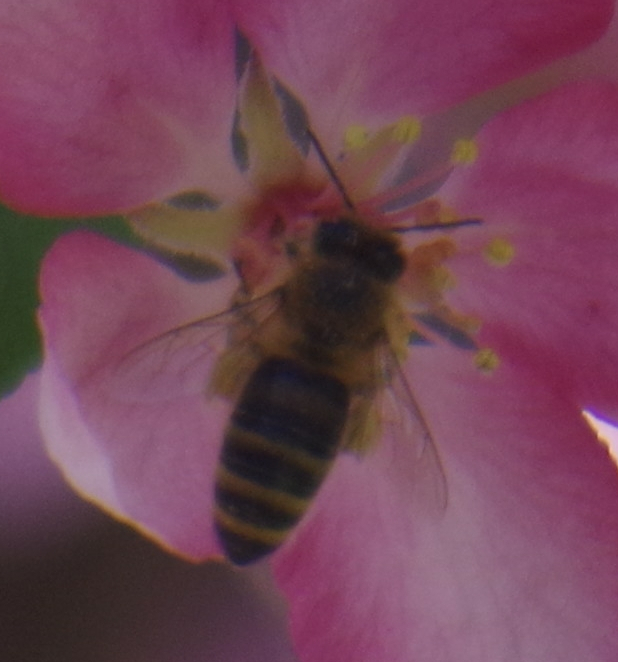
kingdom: Animalia
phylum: Arthropoda
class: Insecta
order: Hymenoptera
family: Apidae
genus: Apis
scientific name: Apis mellifera
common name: Honey bee
